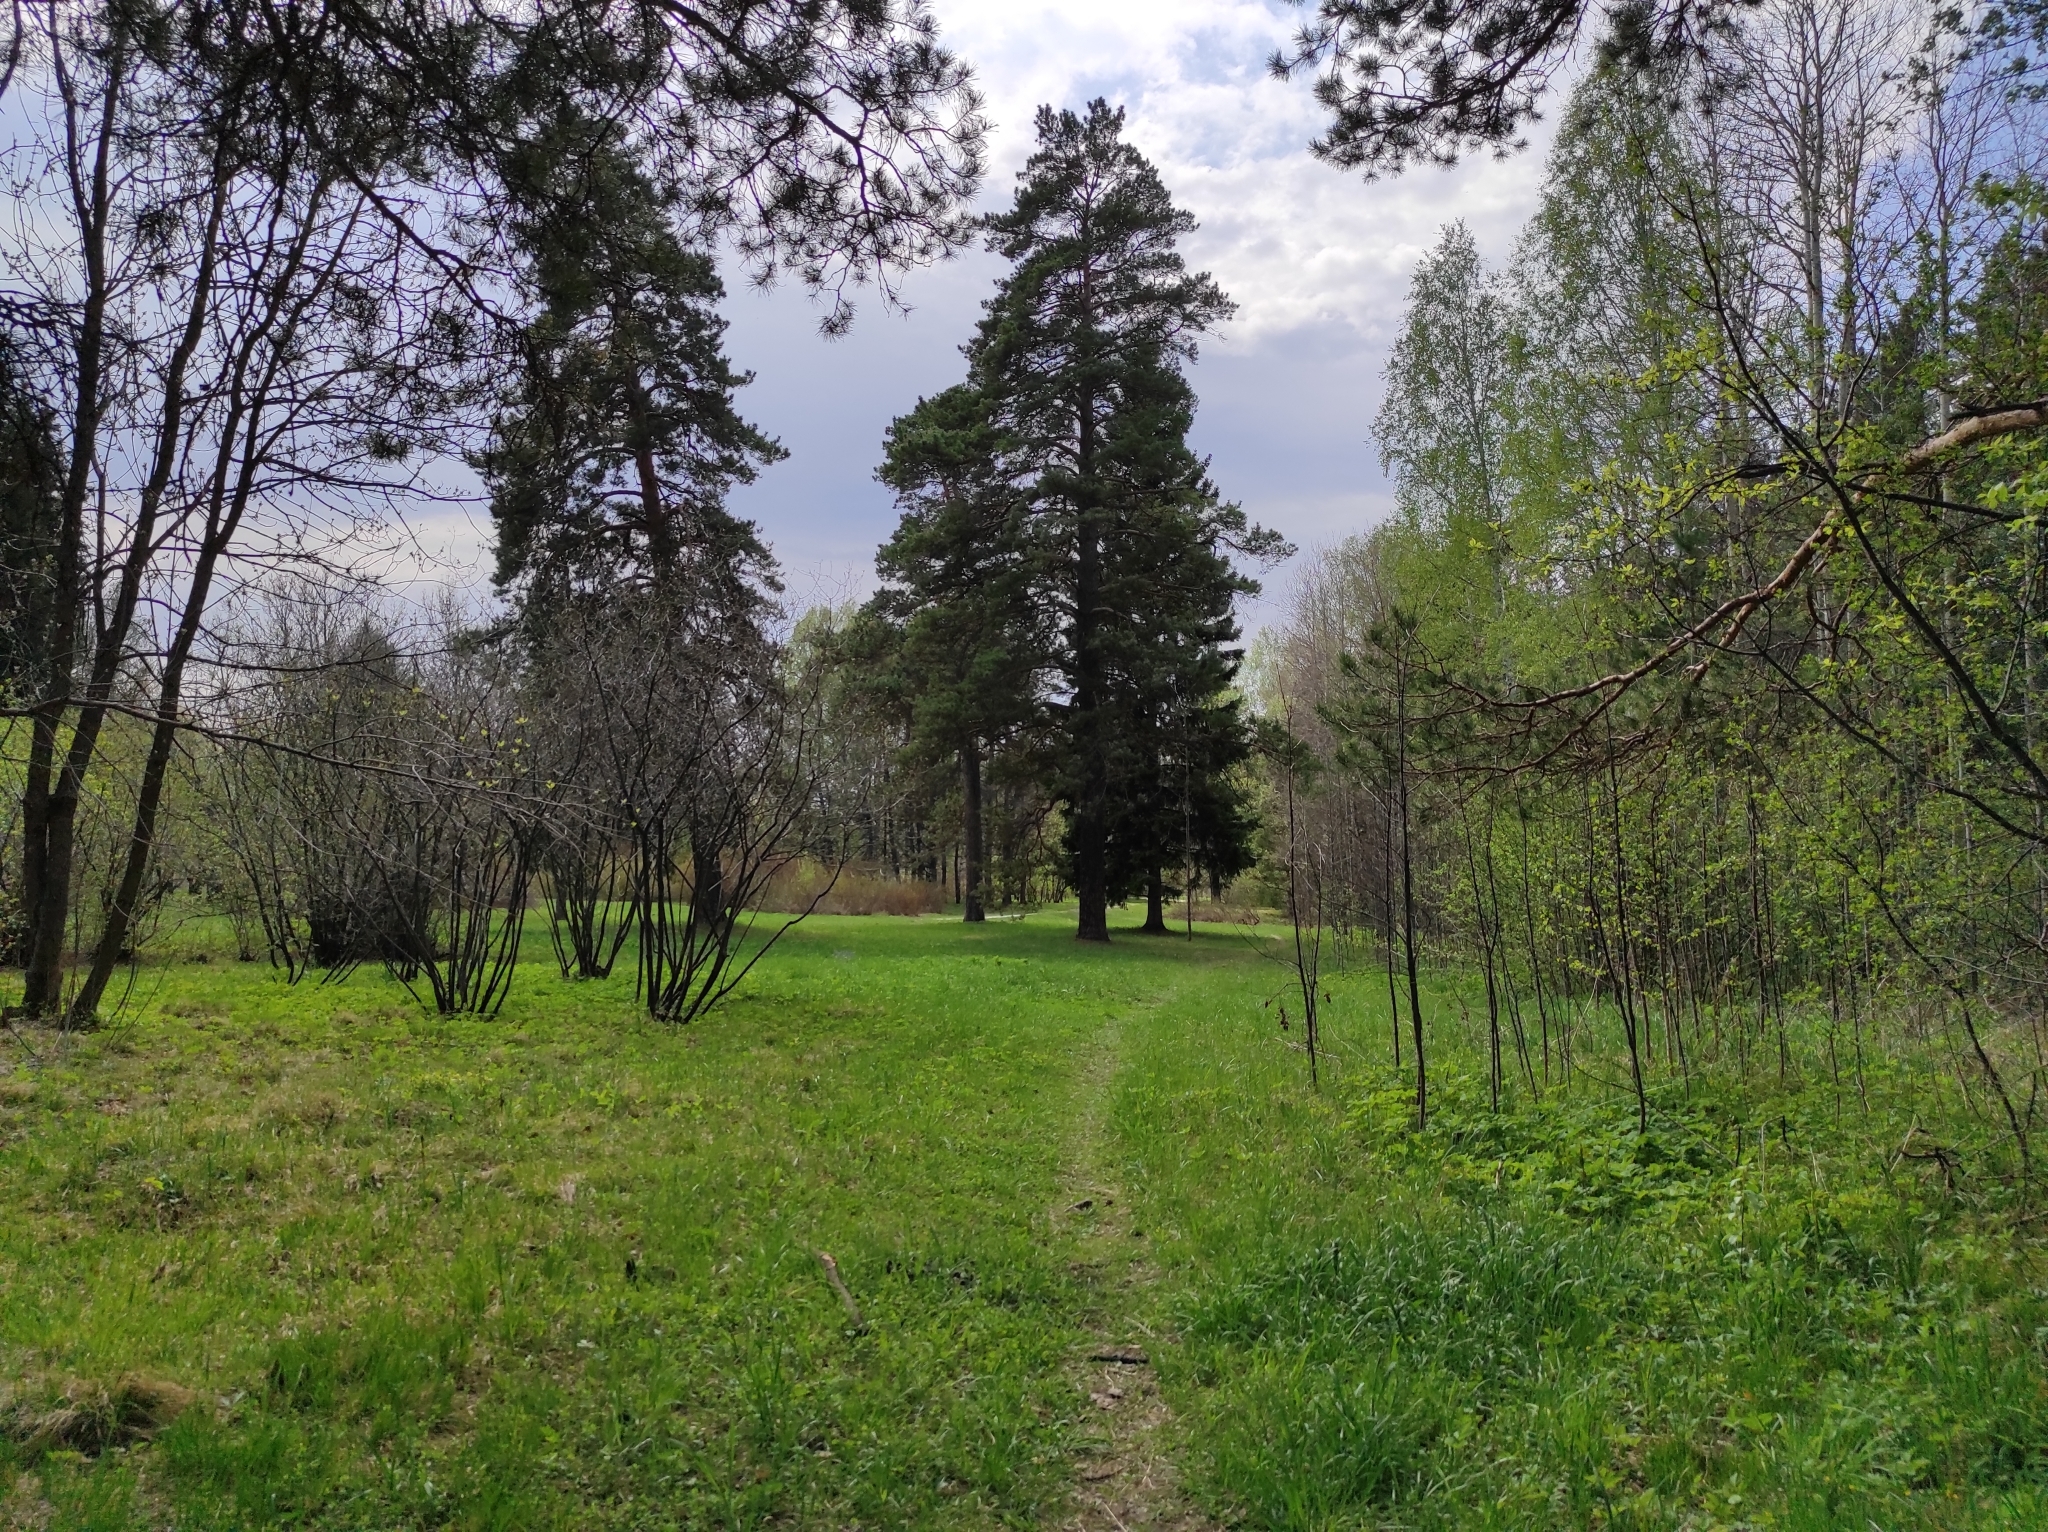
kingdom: Plantae
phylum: Tracheophyta
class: Pinopsida
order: Pinales
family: Pinaceae
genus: Pinus
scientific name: Pinus sylvestris
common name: Scots pine
